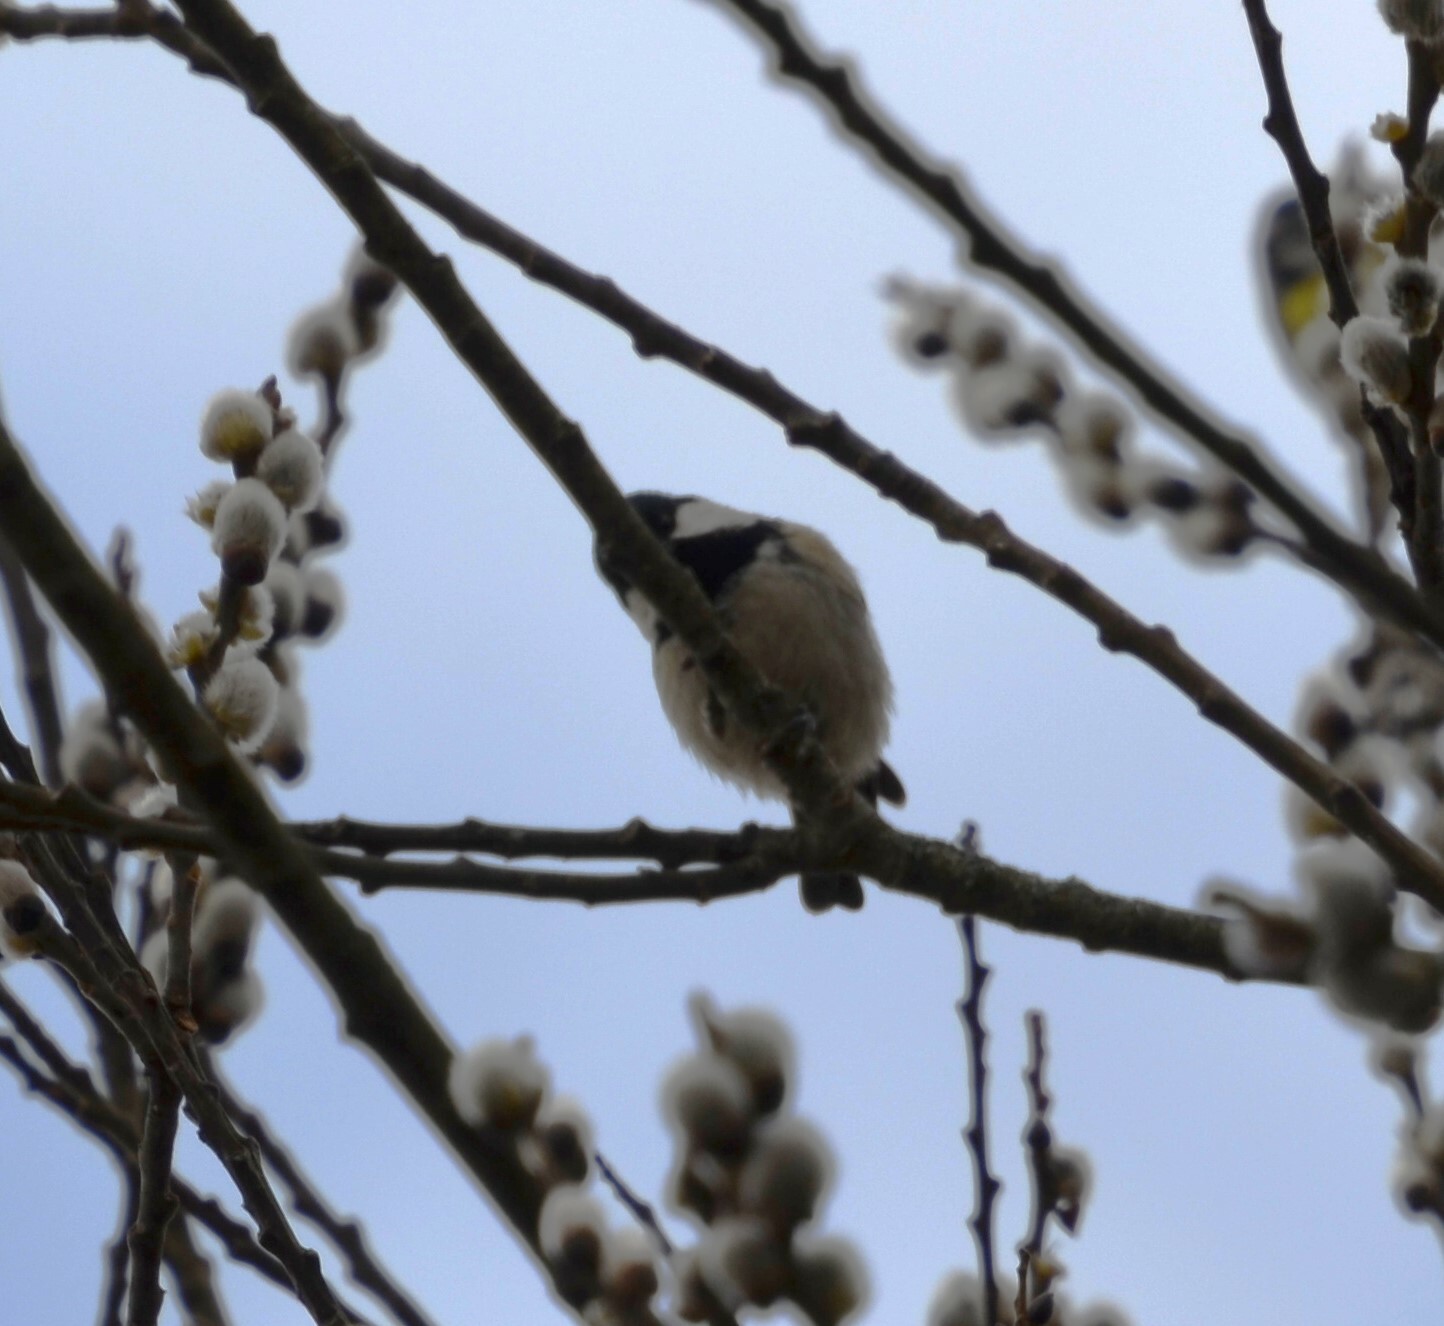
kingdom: Animalia
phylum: Chordata
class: Aves
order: Passeriformes
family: Paridae
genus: Periparus
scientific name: Periparus ater
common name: Coal tit
